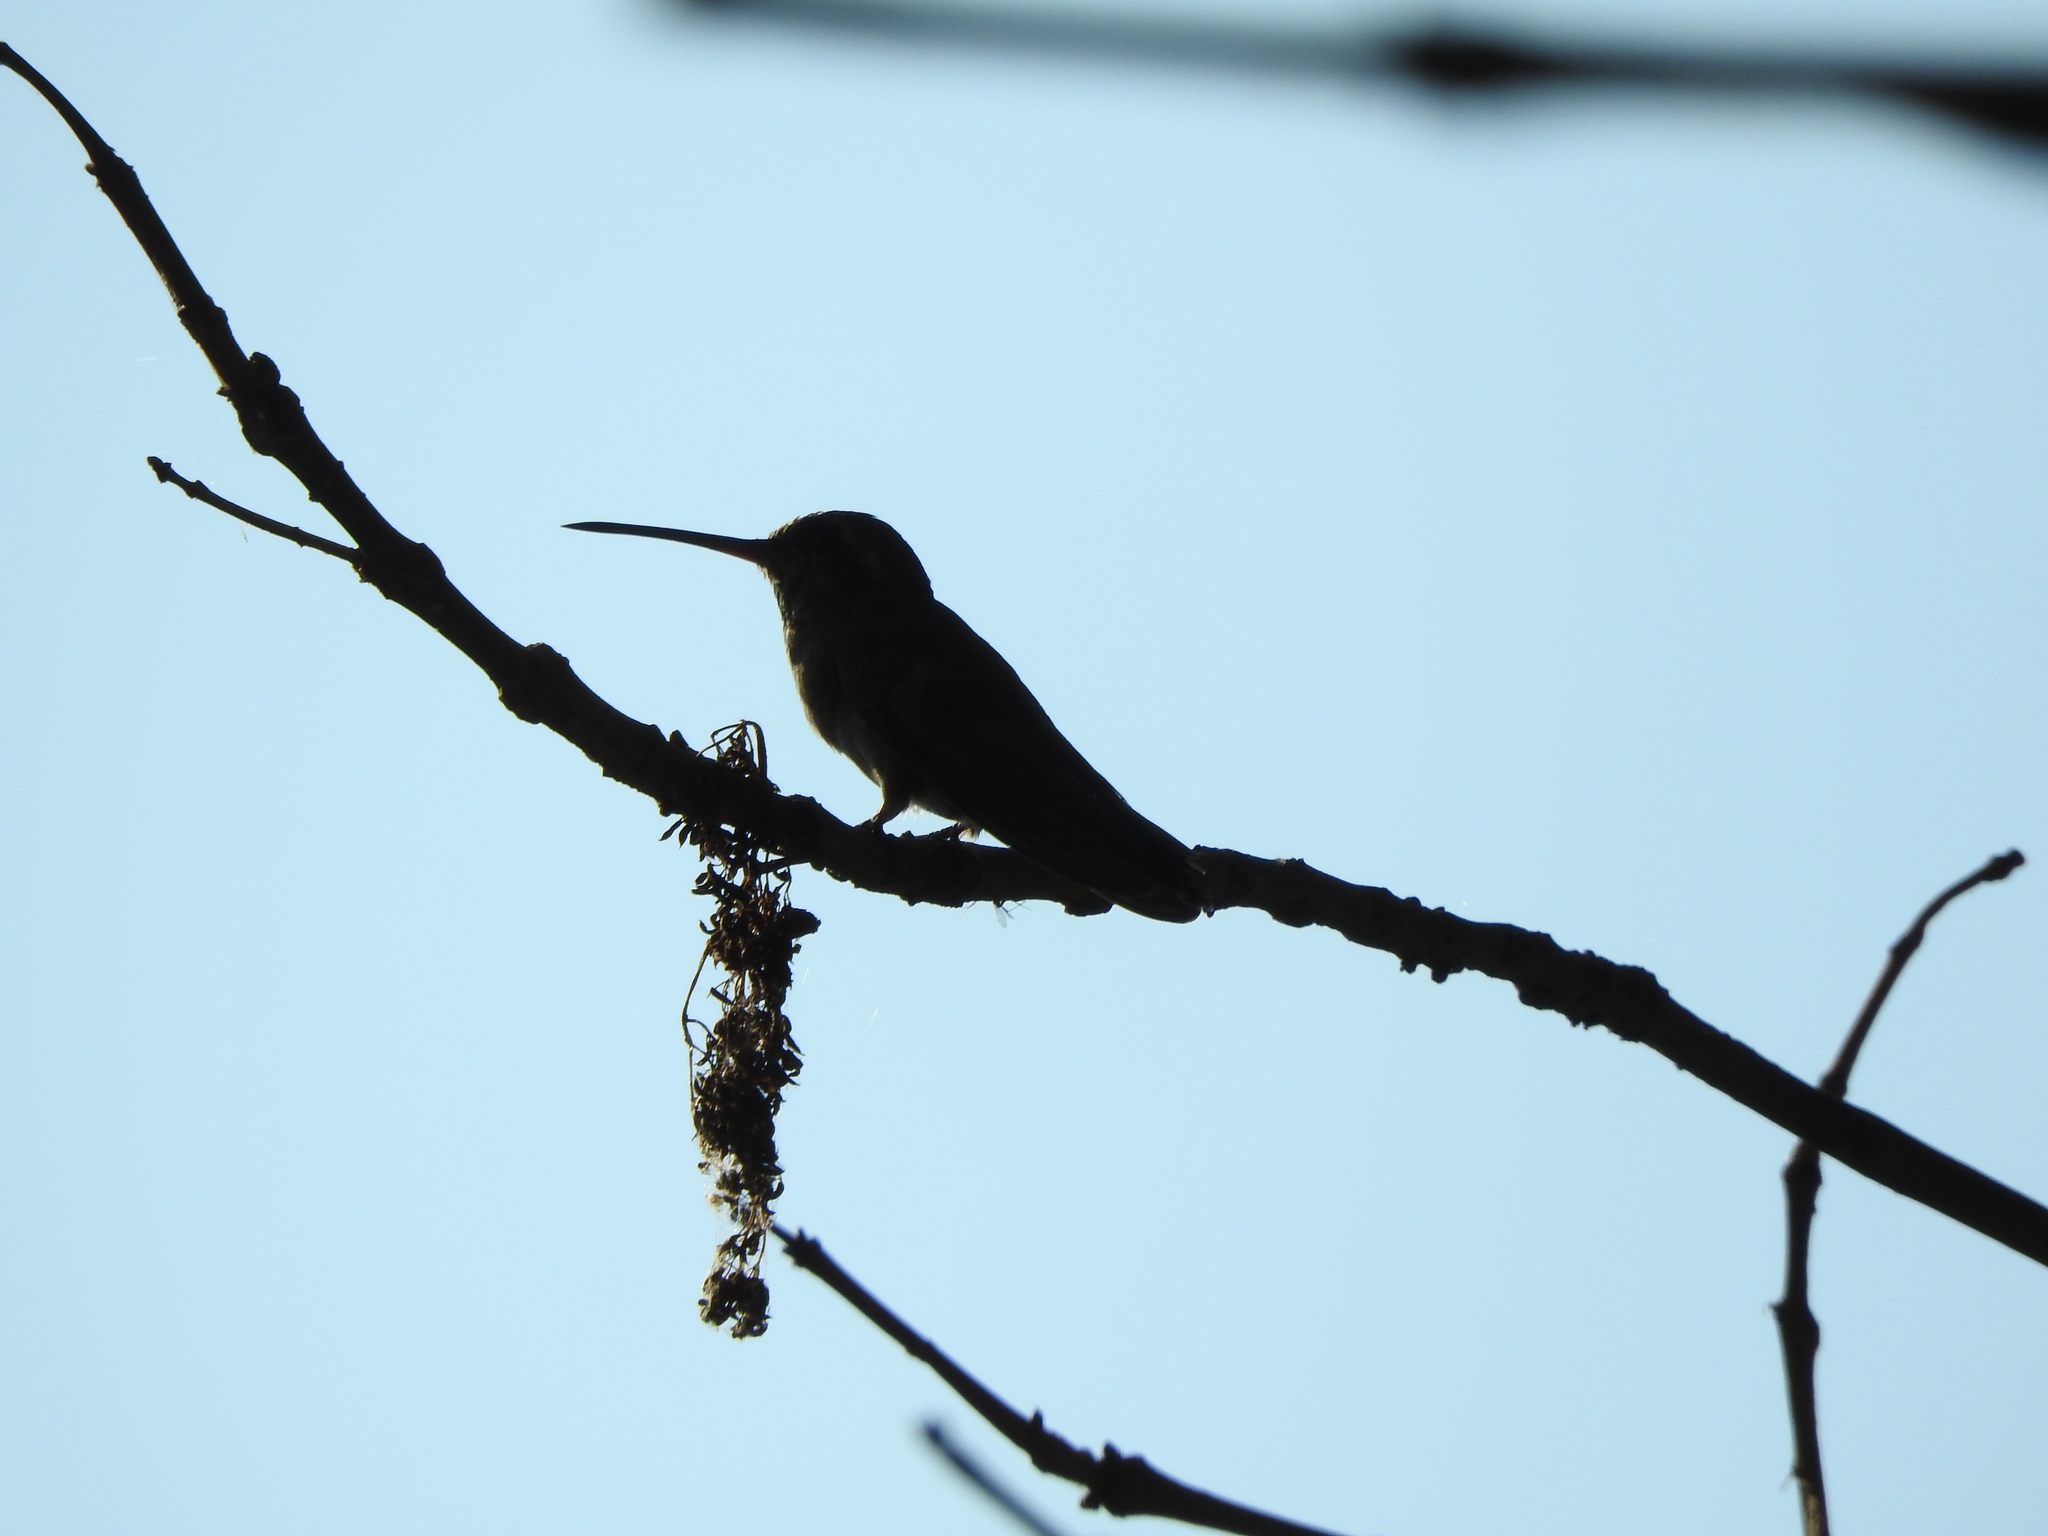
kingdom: Animalia
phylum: Chordata
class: Aves
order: Apodiformes
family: Trochilidae
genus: Cynanthus
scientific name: Cynanthus latirostris
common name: Broad-billed hummingbird
